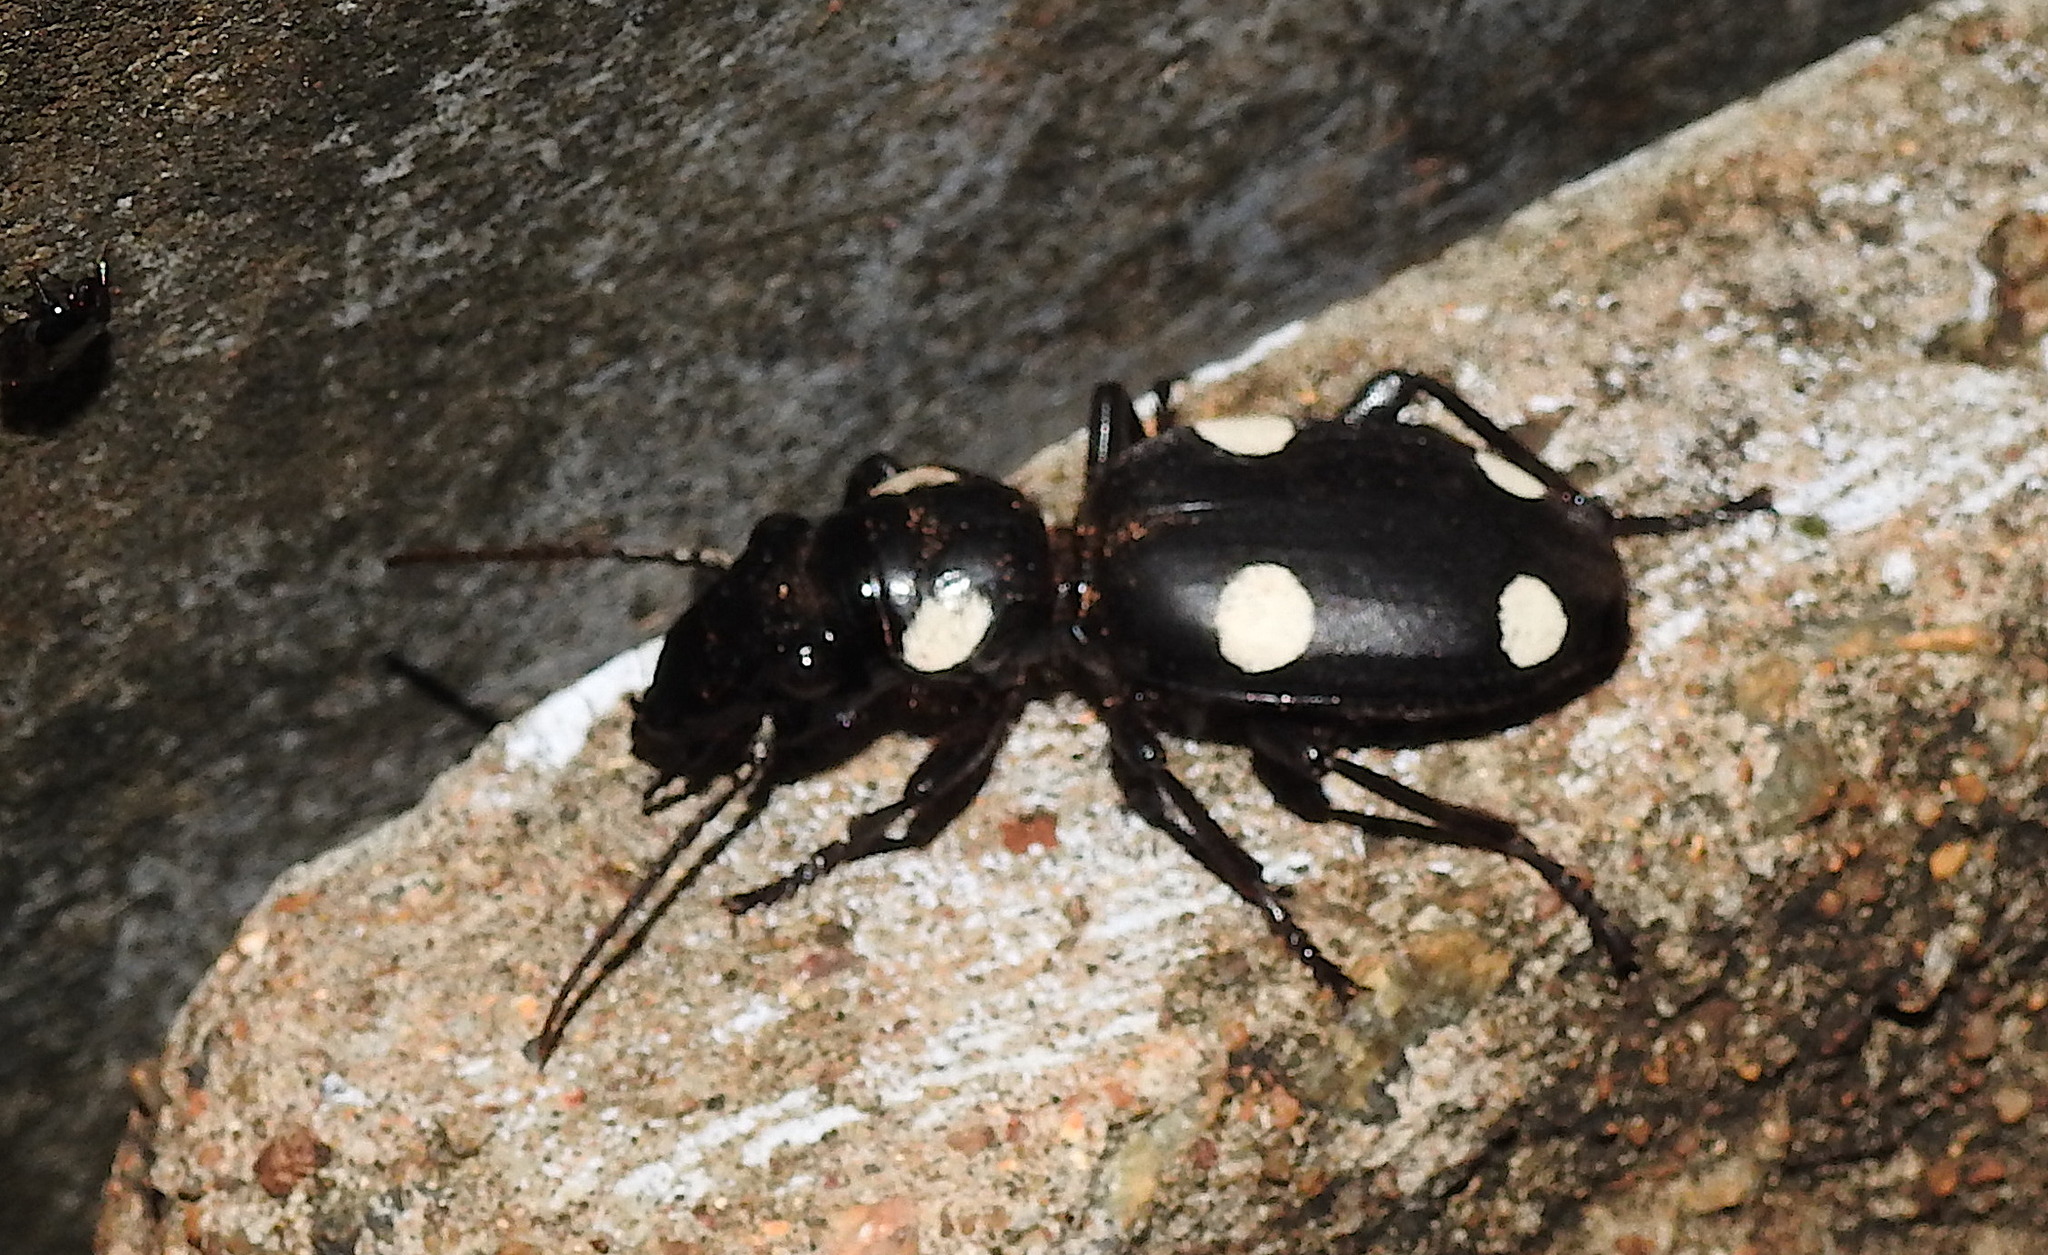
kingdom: Animalia
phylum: Arthropoda
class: Insecta
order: Coleoptera
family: Carabidae
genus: Anthia
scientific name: Anthia sexguttata
